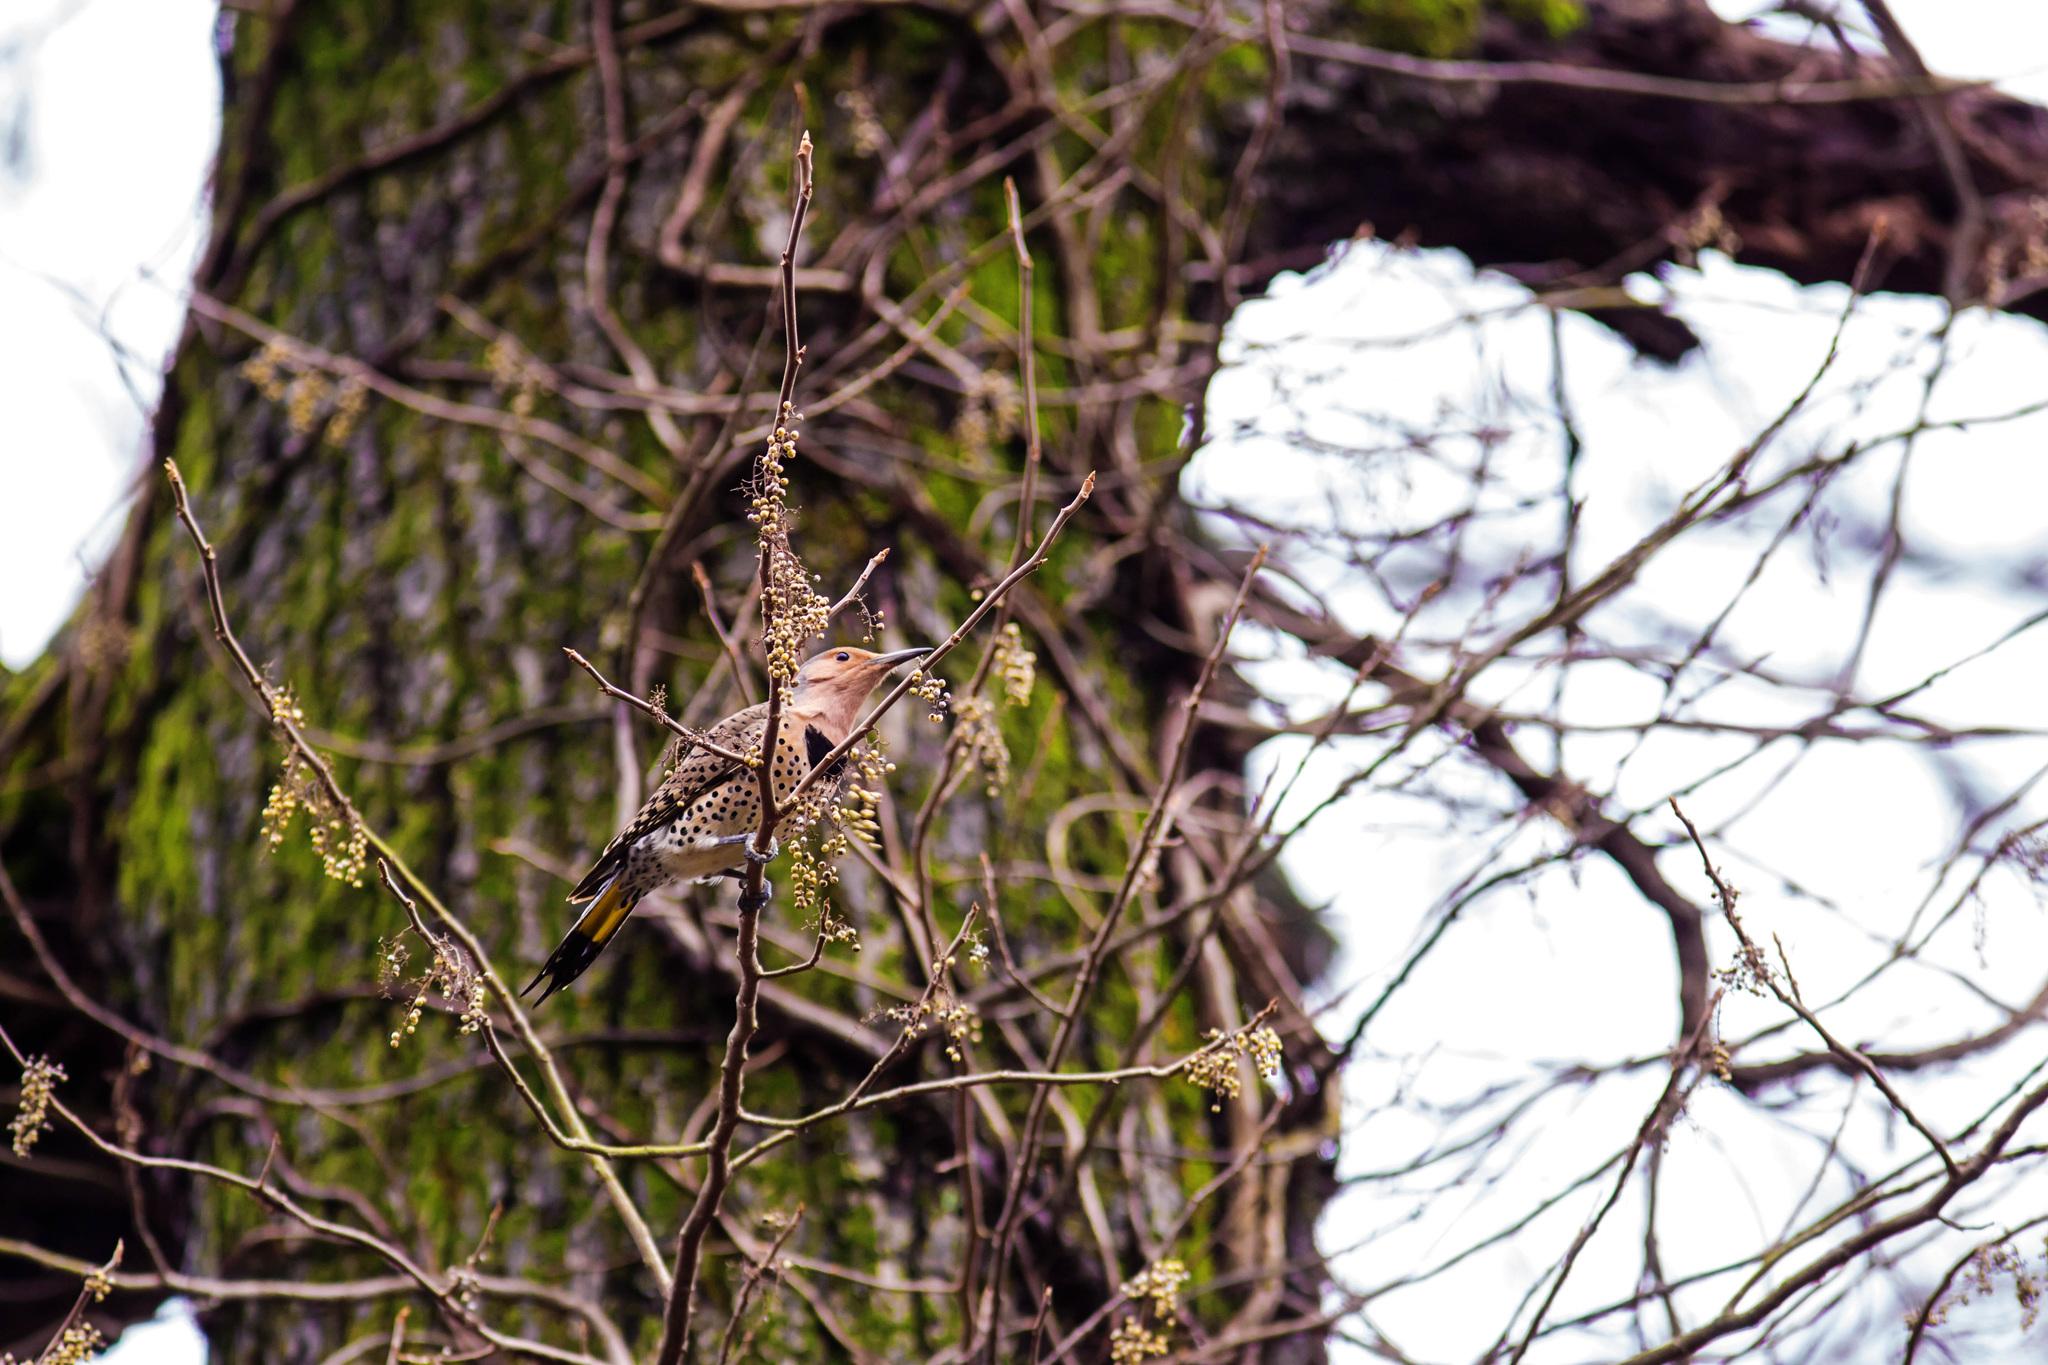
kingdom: Animalia
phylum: Chordata
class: Aves
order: Piciformes
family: Picidae
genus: Colaptes
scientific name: Colaptes auratus
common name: Northern flicker
